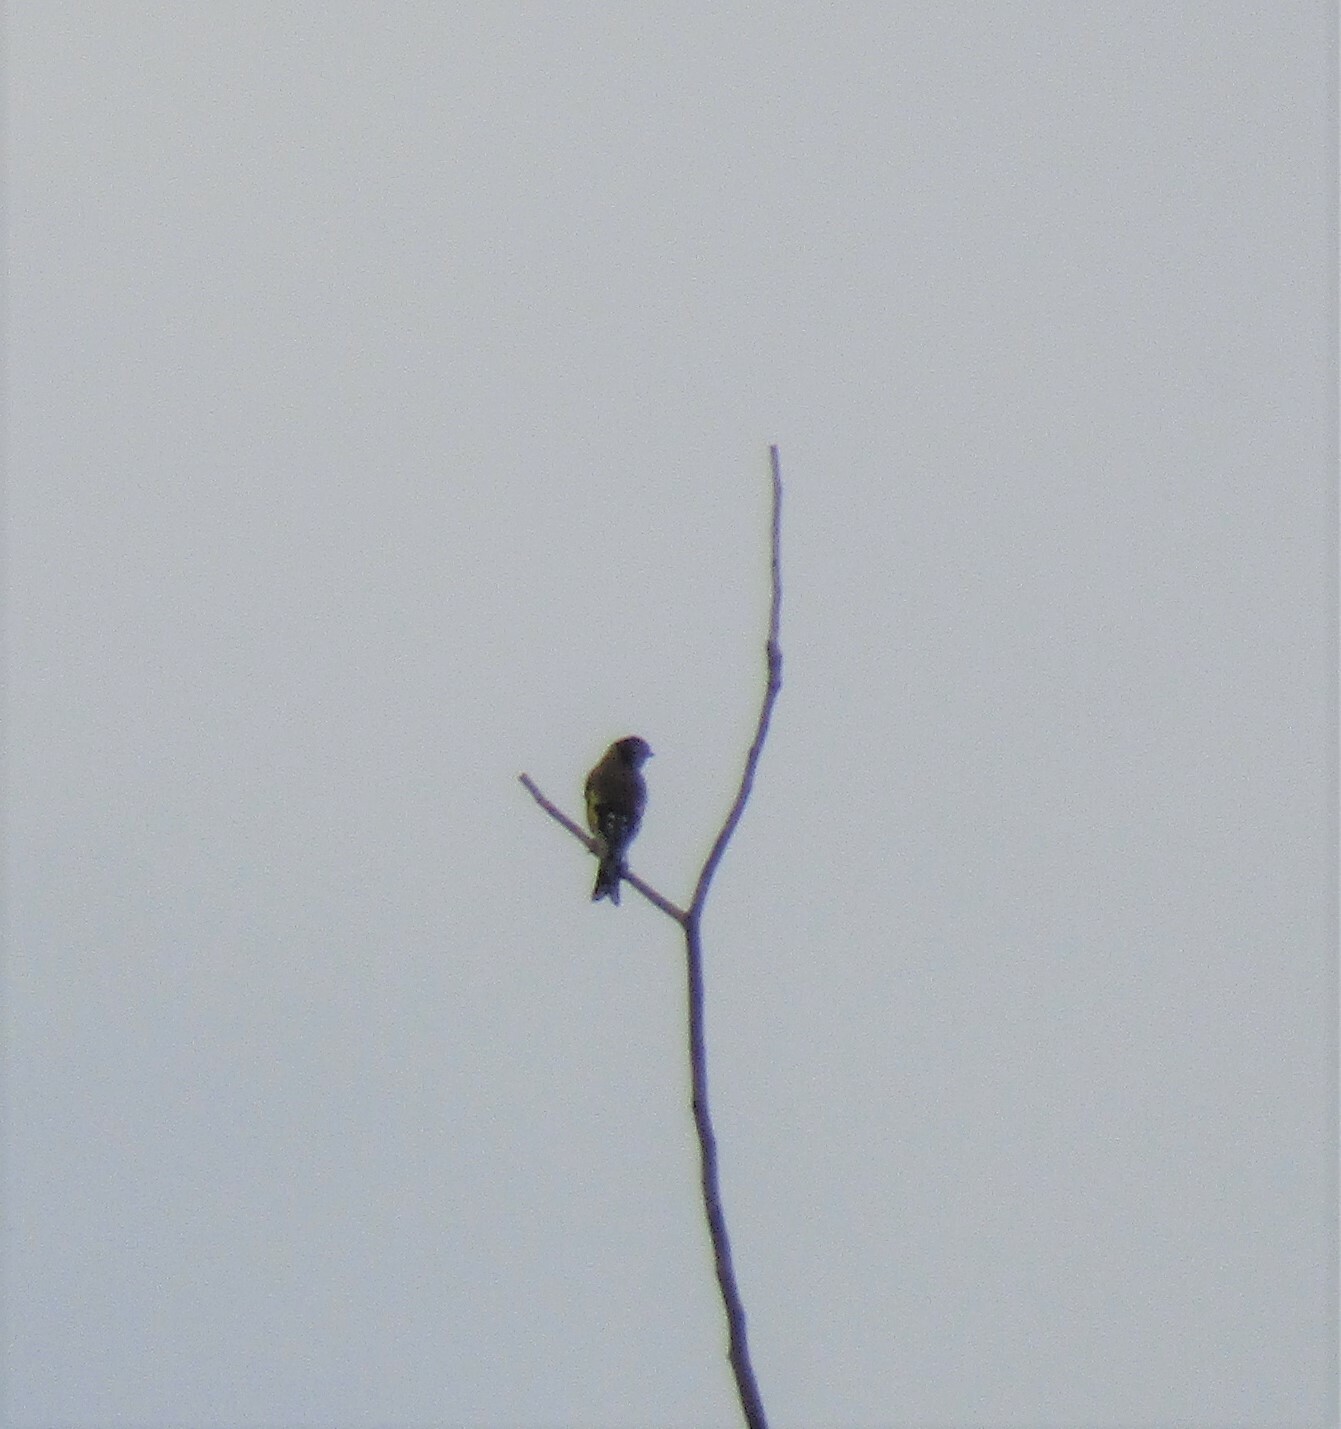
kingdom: Animalia
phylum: Chordata
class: Aves
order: Passeriformes
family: Fringillidae
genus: Carduelis
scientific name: Carduelis carduelis
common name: European goldfinch
